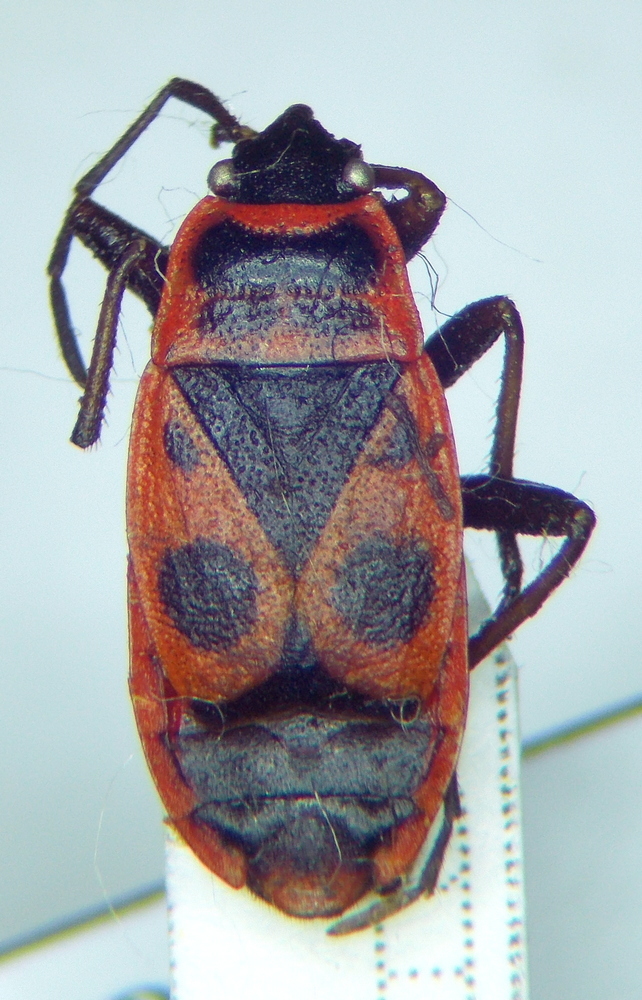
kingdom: Animalia
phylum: Arthropoda
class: Insecta
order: Hemiptera
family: Pyrrhocoridae
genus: Pyrrhocoris
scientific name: Pyrrhocoris apterus
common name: Firebug
